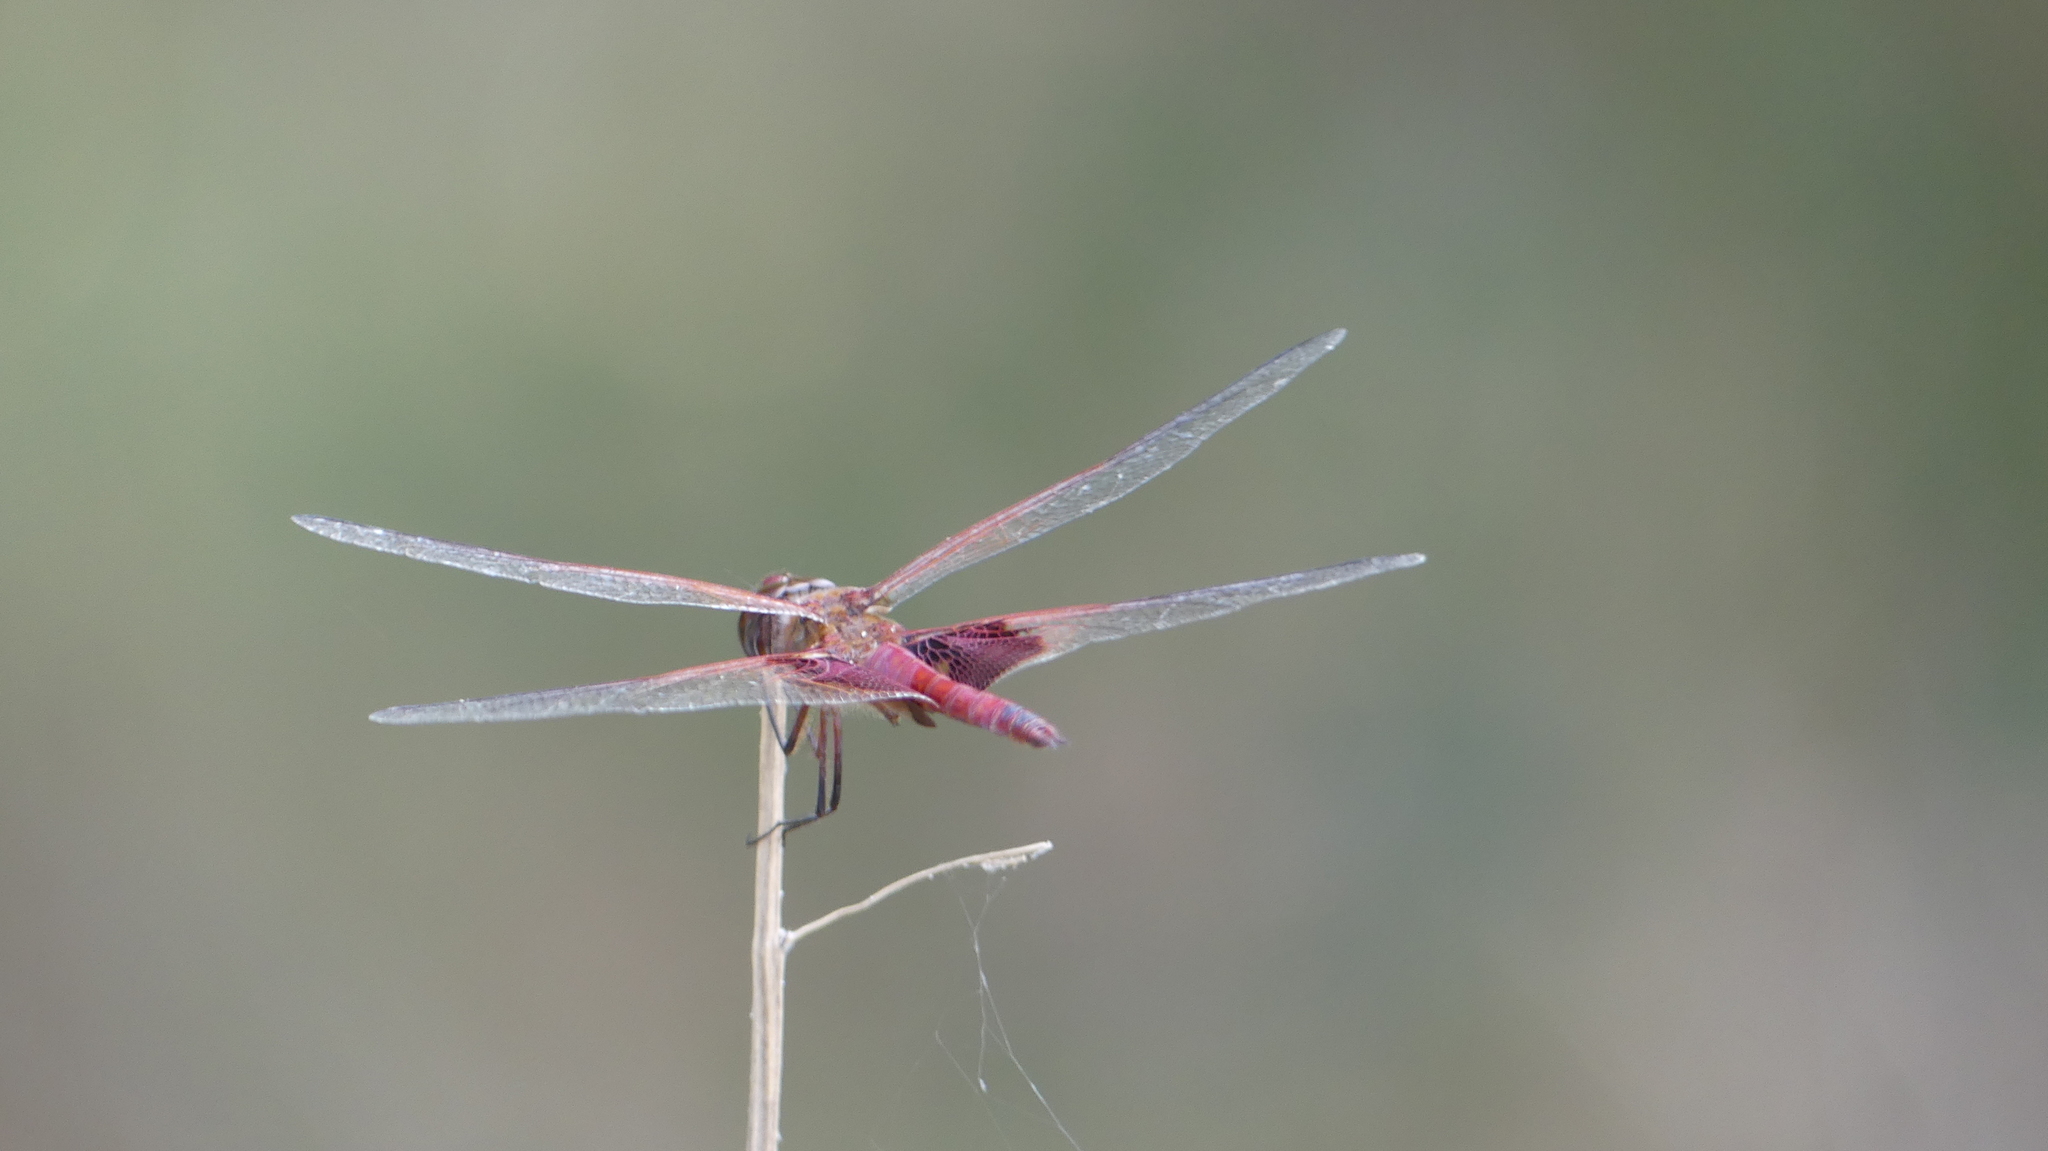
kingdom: Animalia
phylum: Arthropoda
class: Insecta
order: Odonata
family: Libellulidae
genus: Tramea
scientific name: Tramea onusta
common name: Red saddlebags
